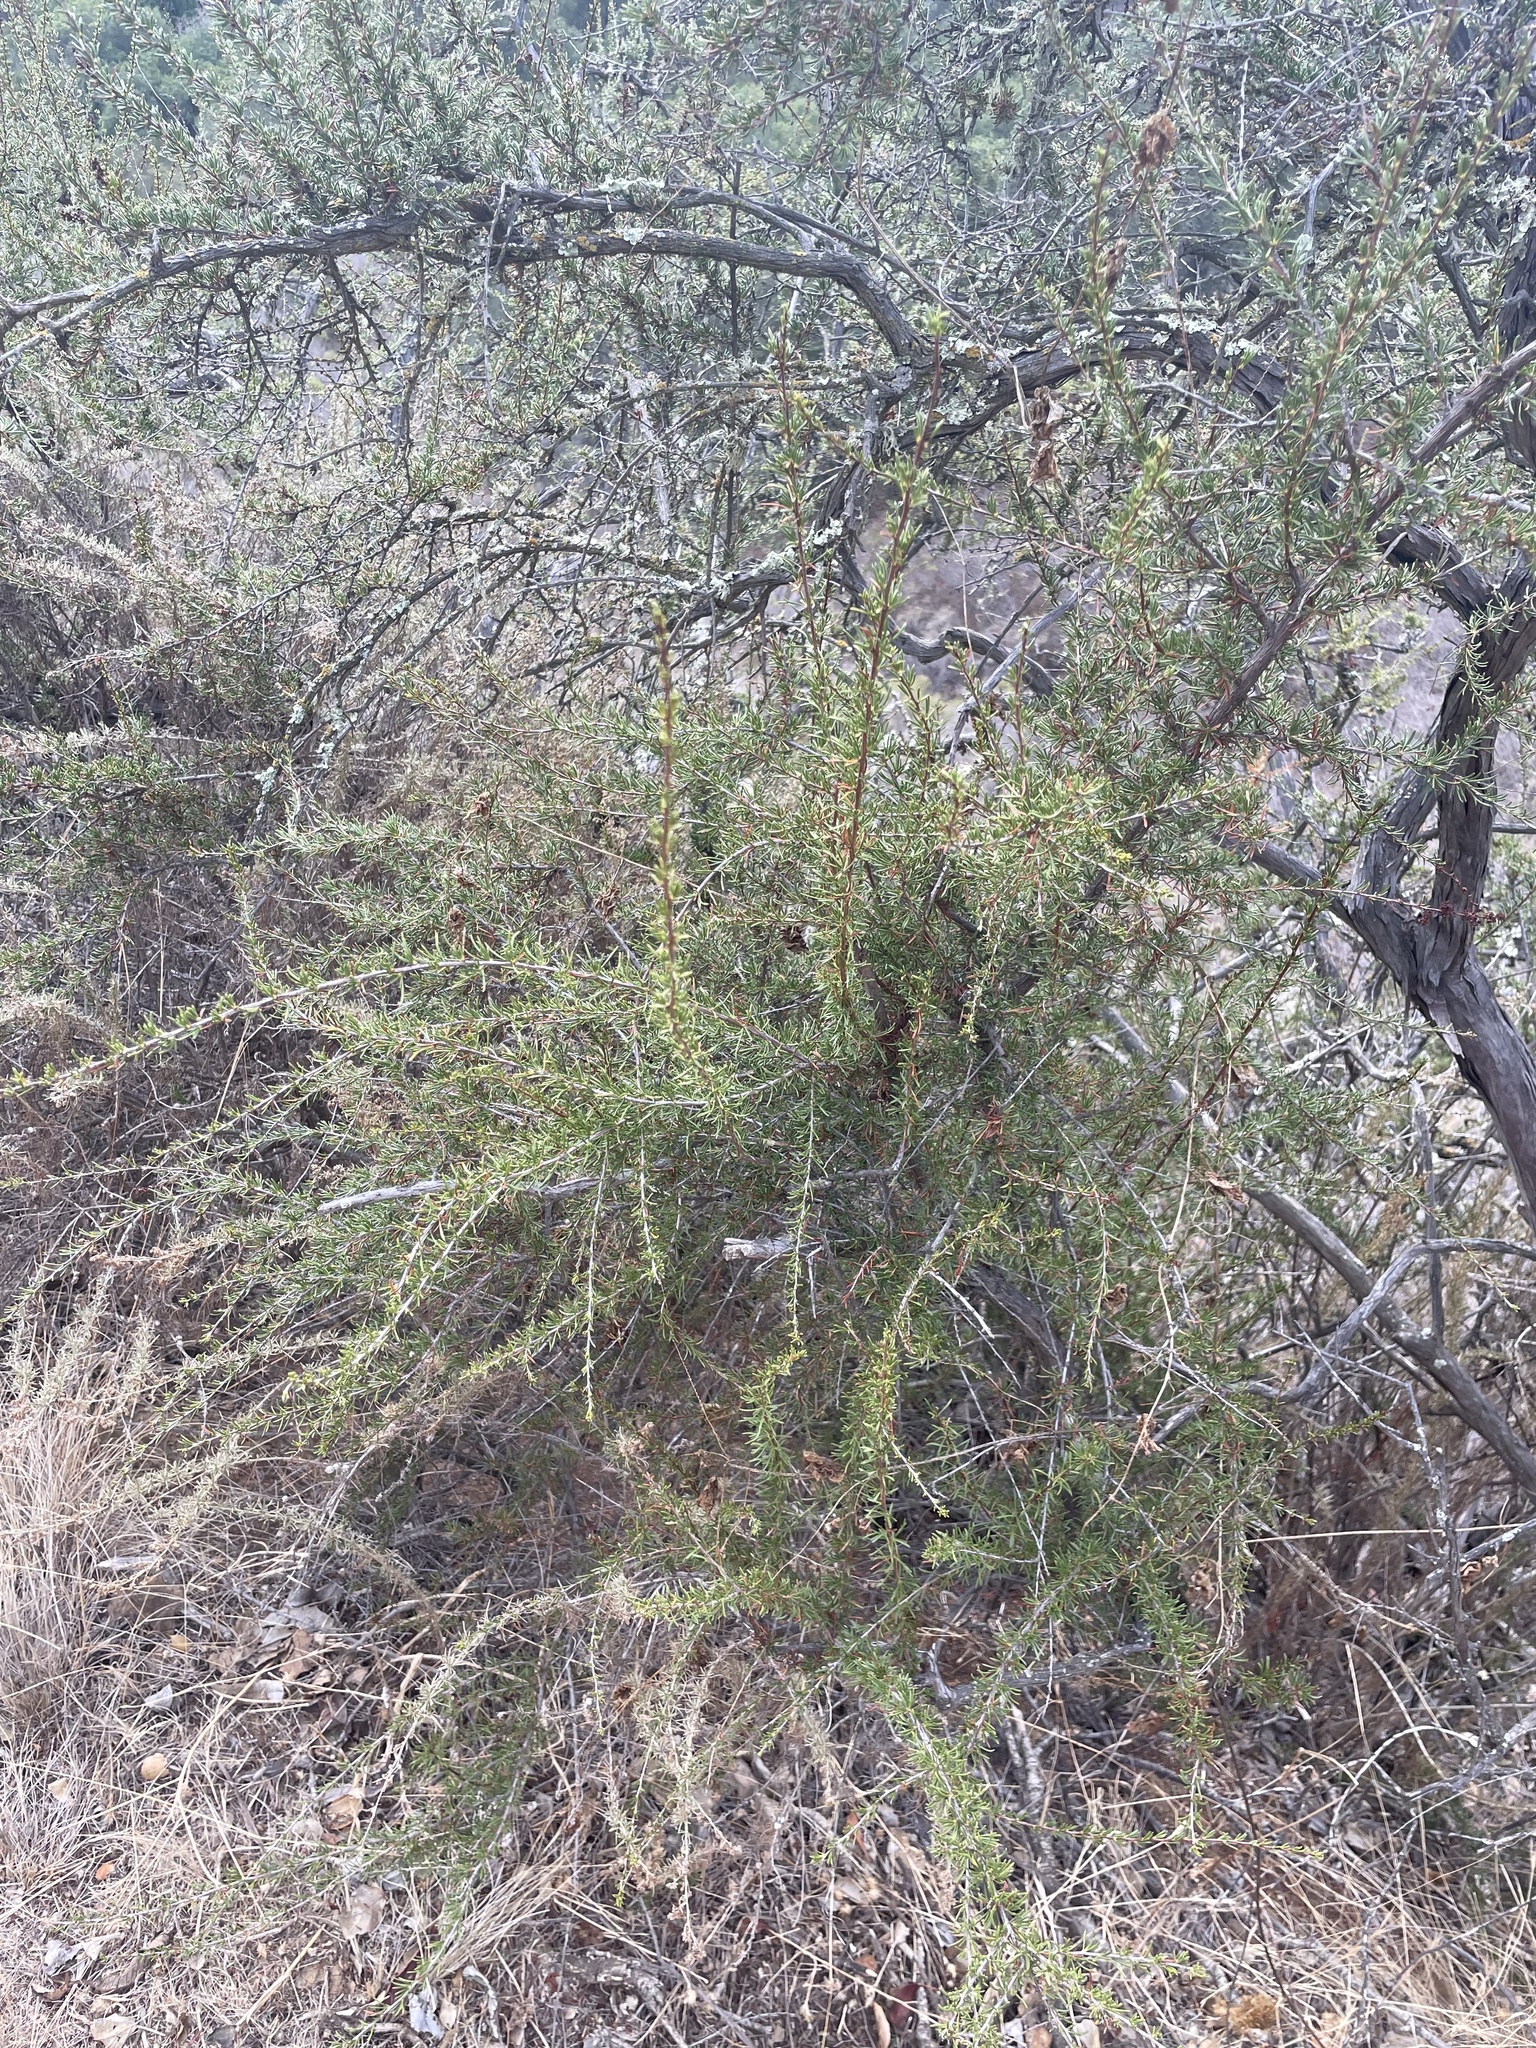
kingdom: Plantae
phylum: Tracheophyta
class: Magnoliopsida
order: Rosales
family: Rosaceae
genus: Adenostoma
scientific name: Adenostoma fasciculatum
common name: Chamise
